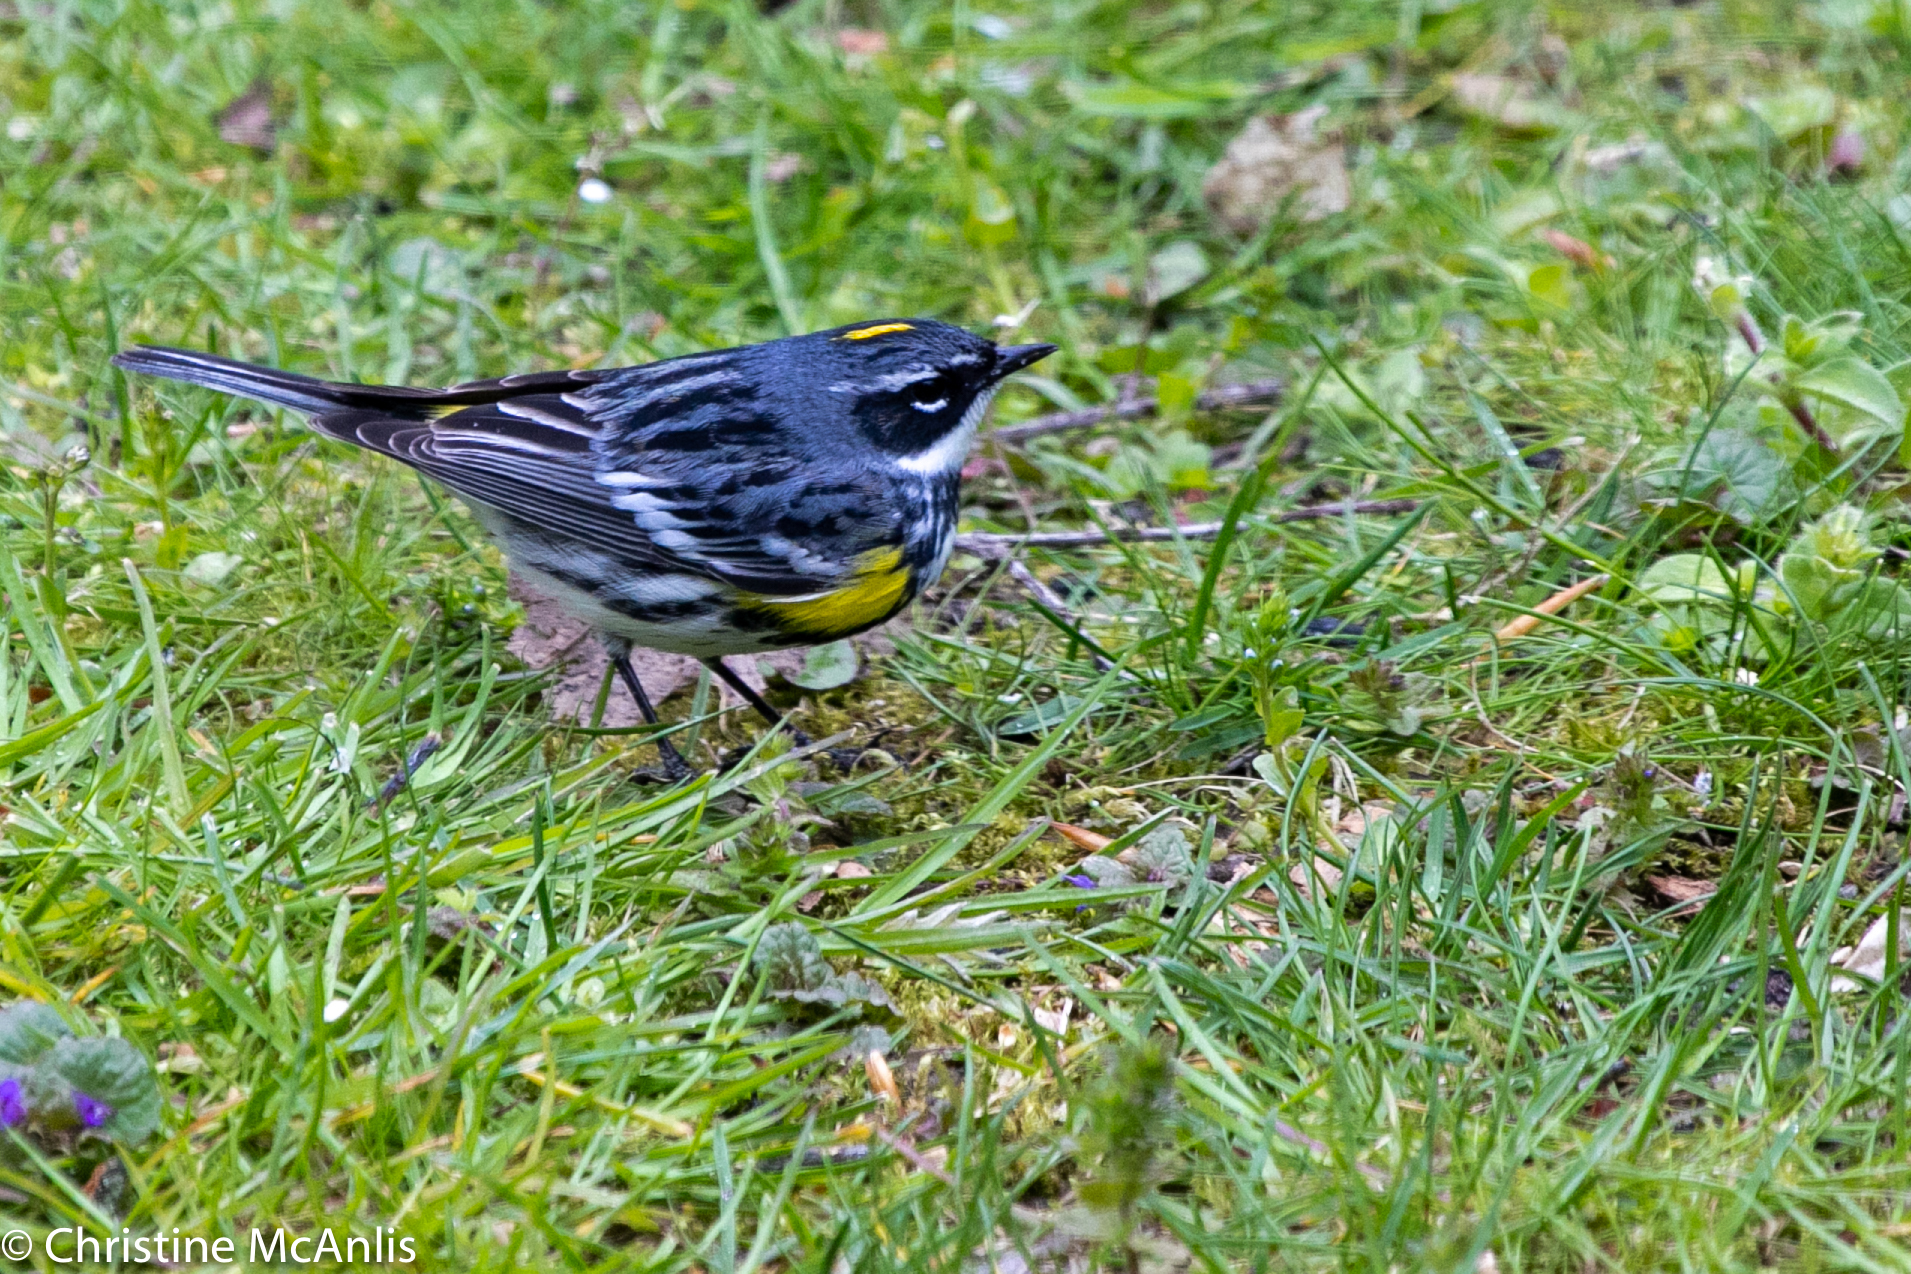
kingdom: Animalia
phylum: Chordata
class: Aves
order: Passeriformes
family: Parulidae
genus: Setophaga
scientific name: Setophaga coronata
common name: Myrtle warbler
